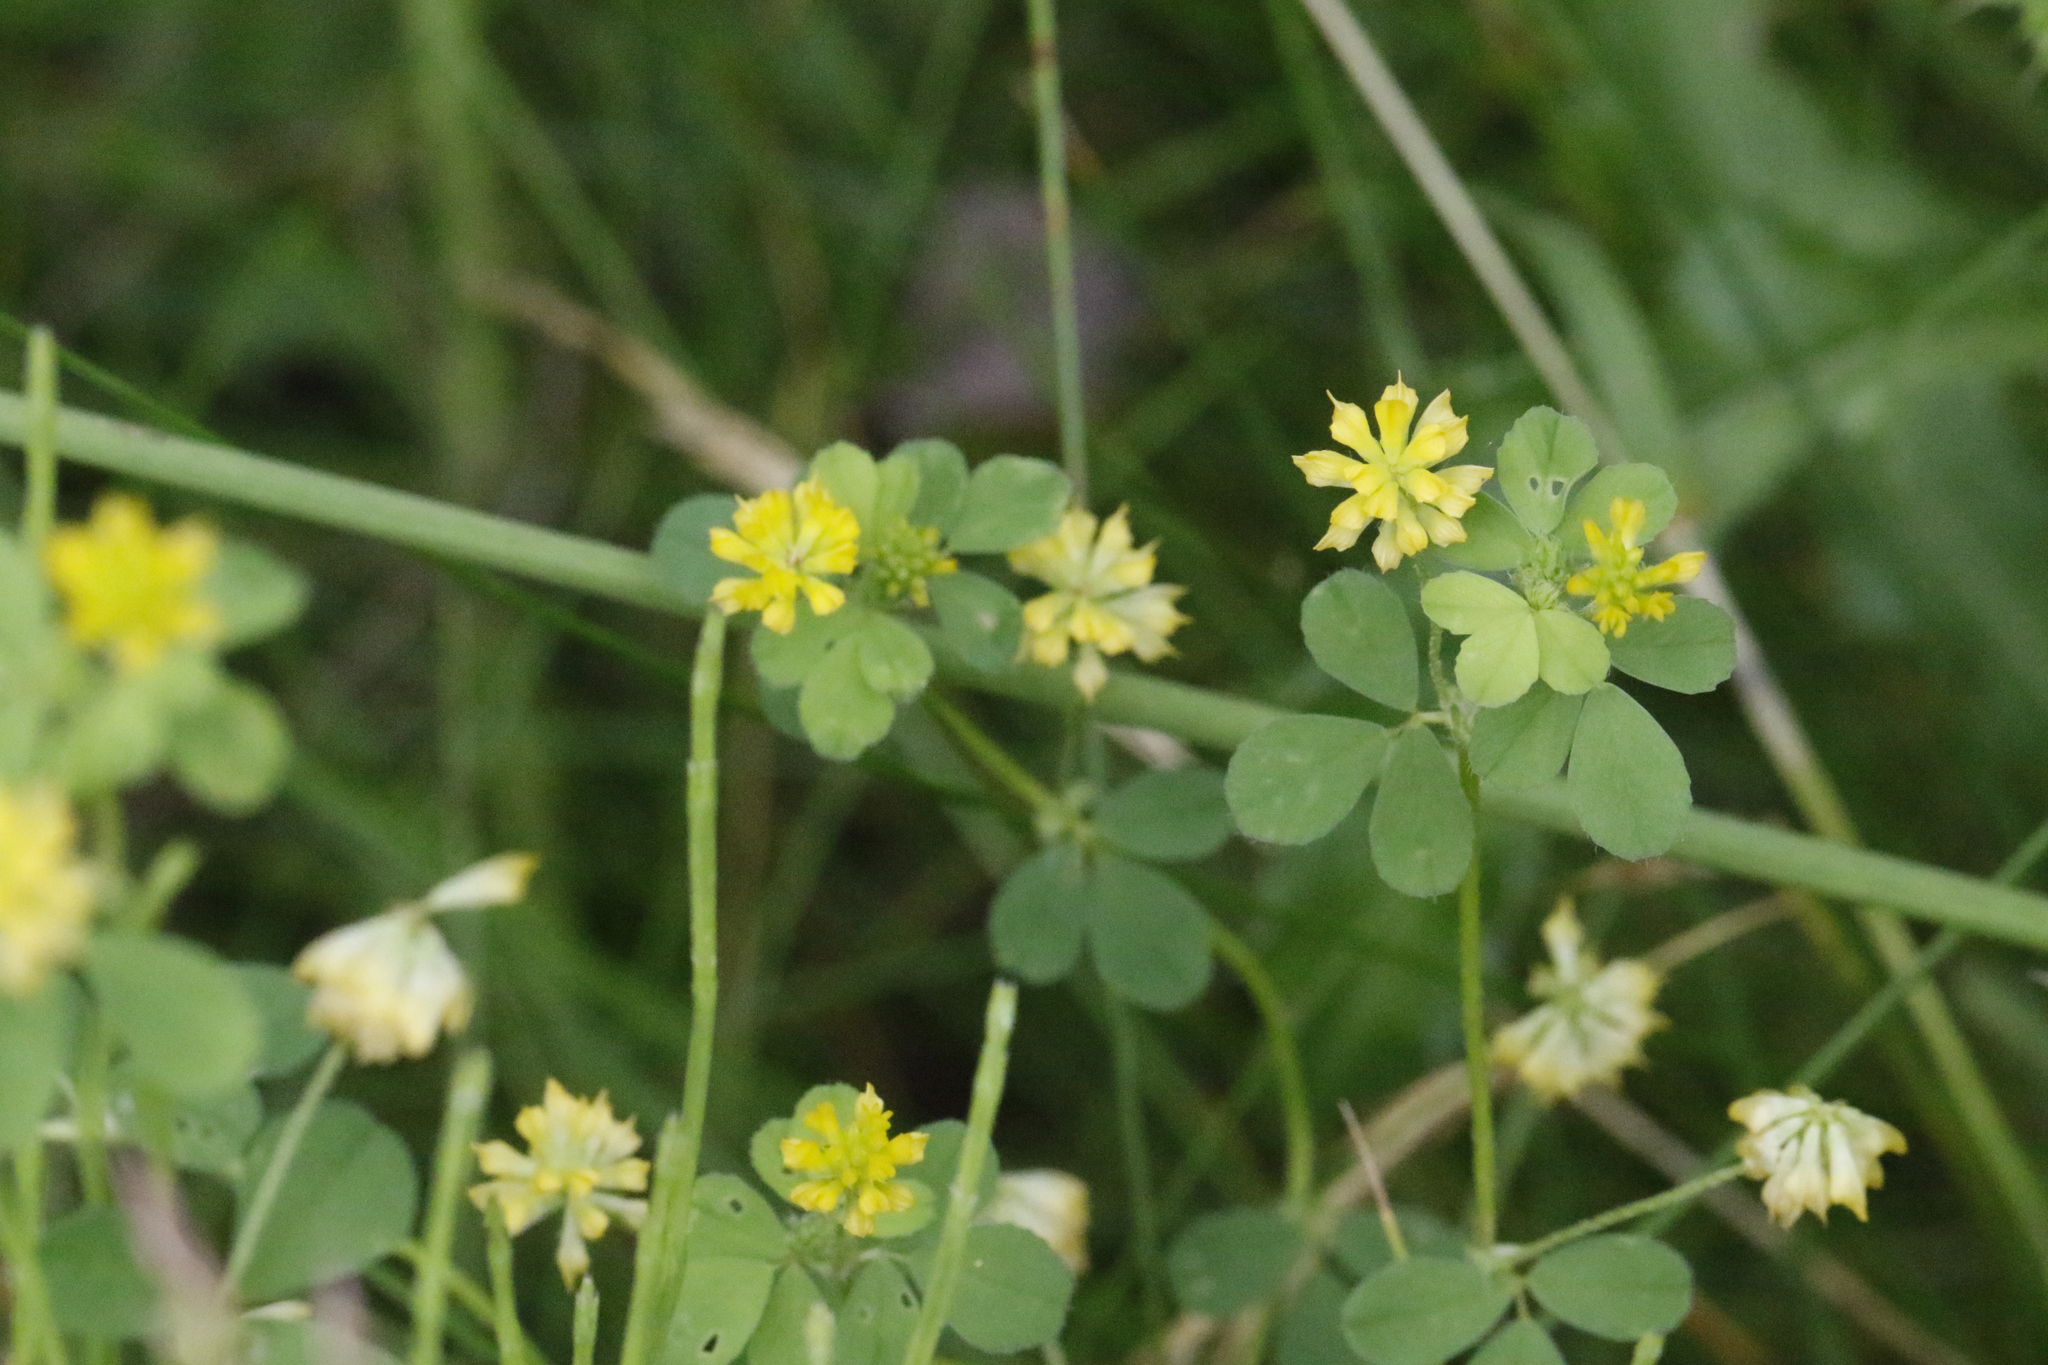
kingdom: Plantae
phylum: Tracheophyta
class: Magnoliopsida
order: Fabales
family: Fabaceae
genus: Trifolium
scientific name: Trifolium dubium
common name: Suckling clover
